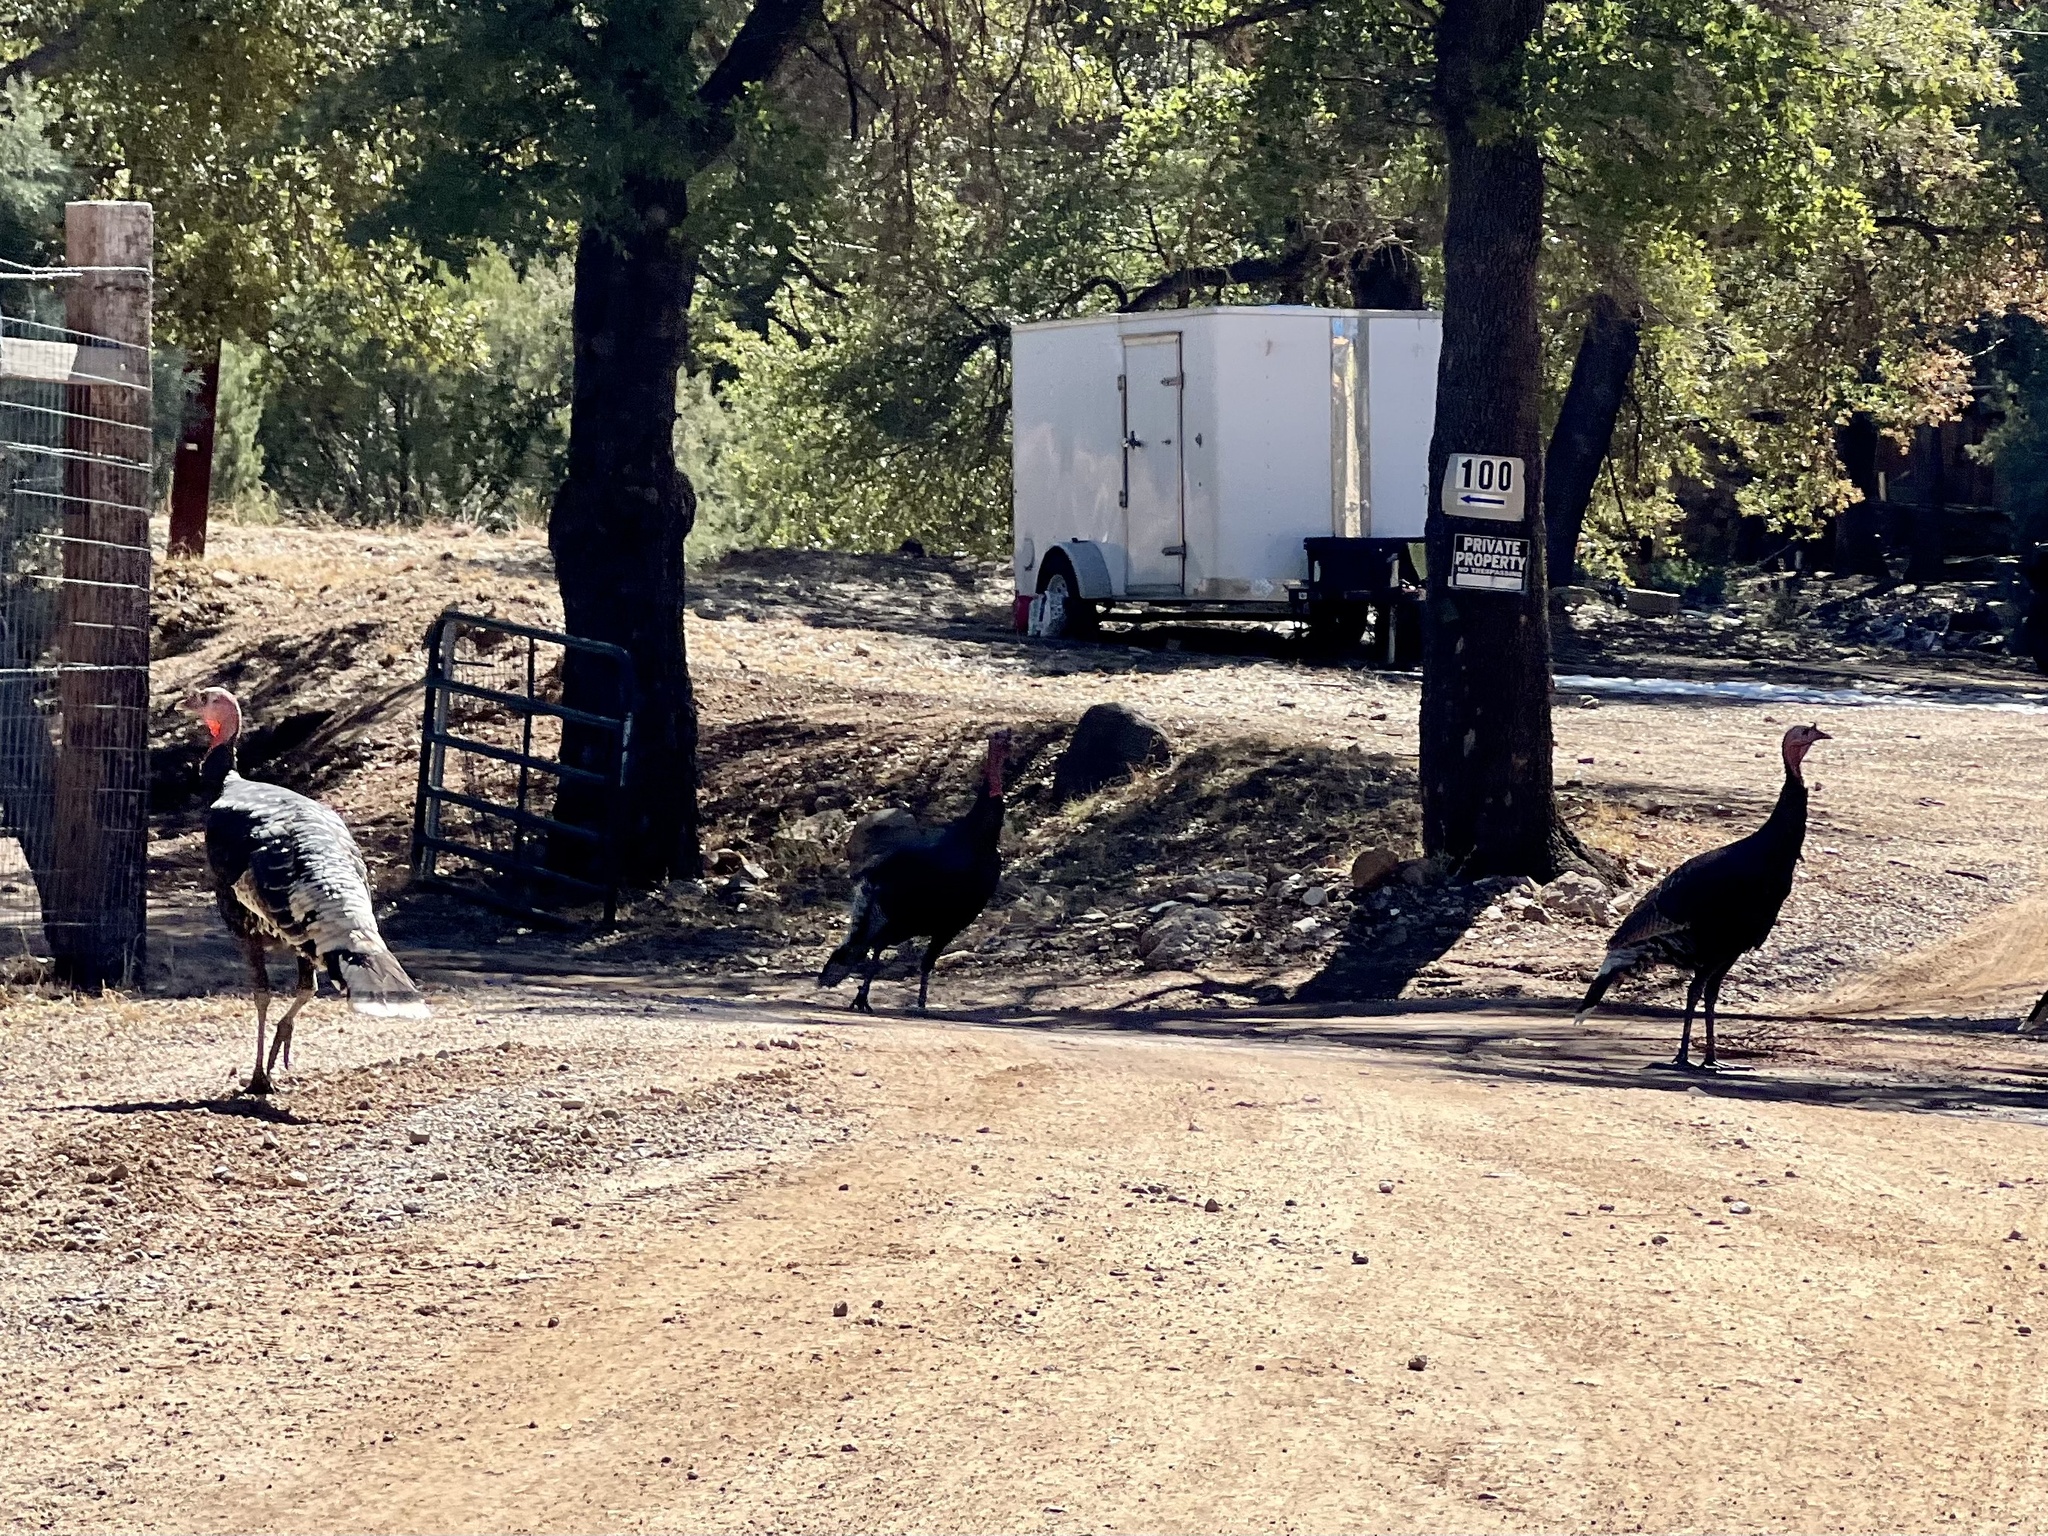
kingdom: Animalia
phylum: Chordata
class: Aves
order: Galliformes
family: Phasianidae
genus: Meleagris
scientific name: Meleagris gallopavo
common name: Wild turkey
